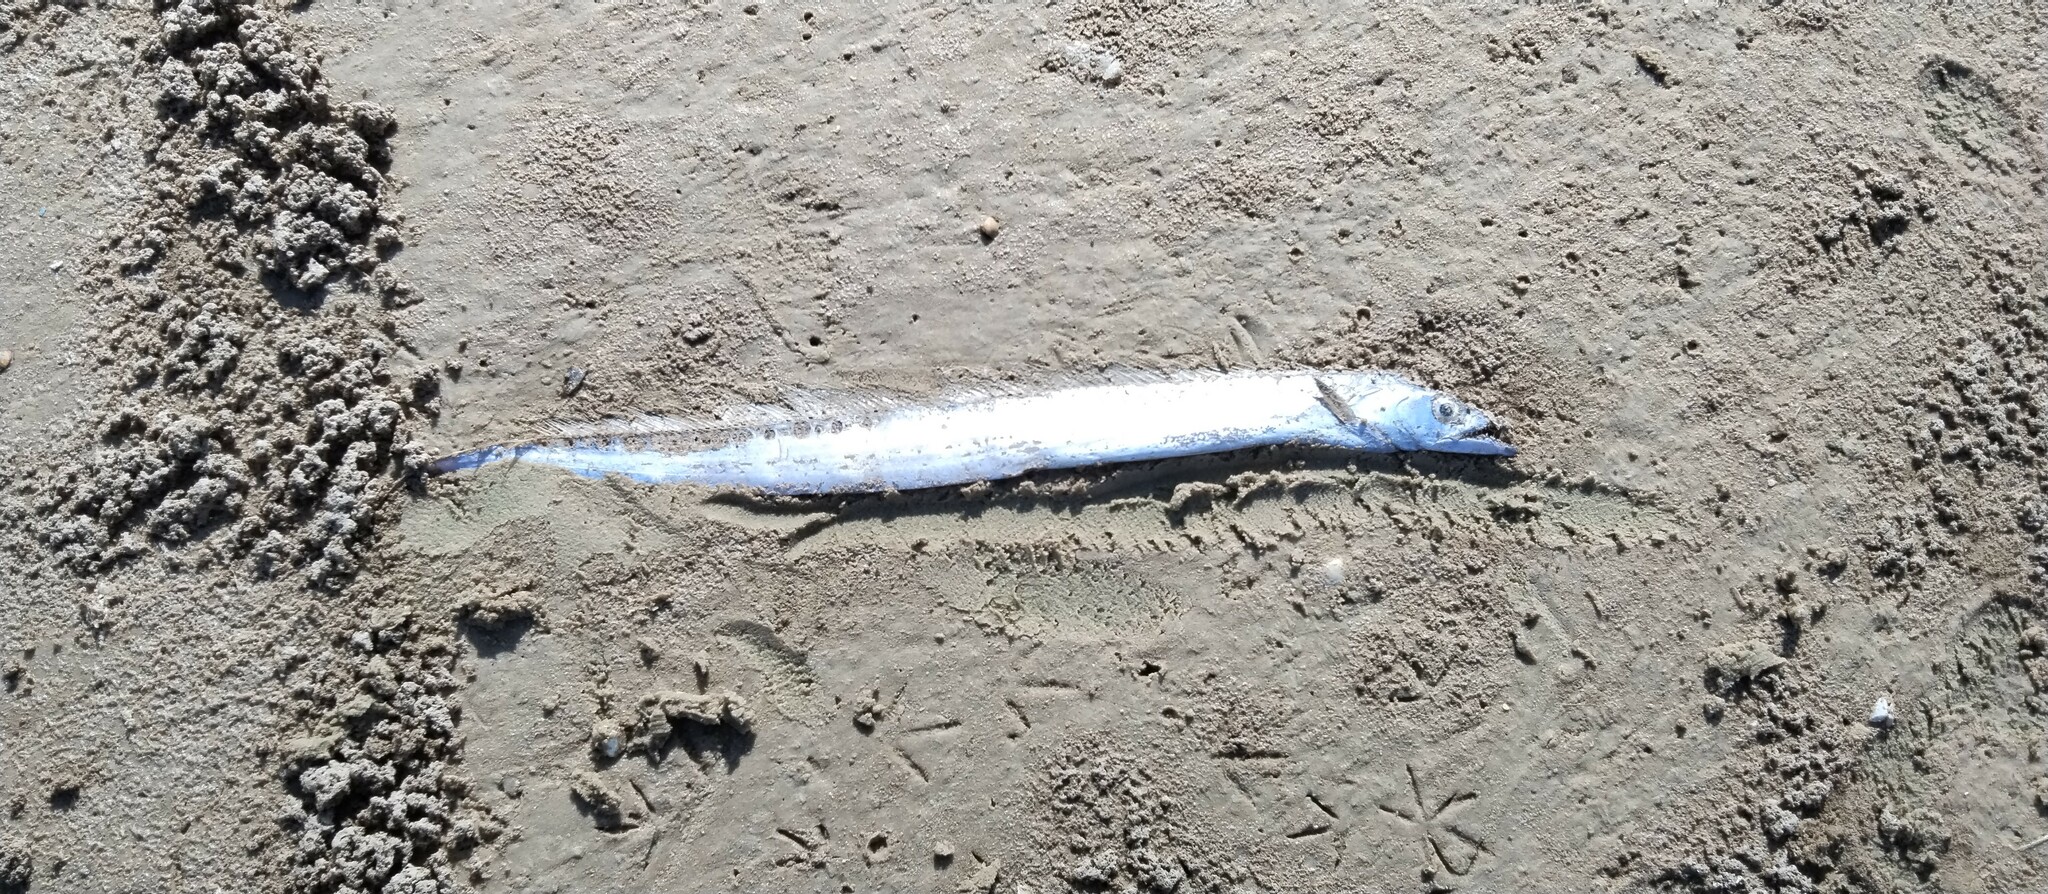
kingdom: Animalia
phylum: Chordata
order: Perciformes
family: Trichiuridae
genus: Trichiurus
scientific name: Trichiurus lepturus
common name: Largehead hairtail
